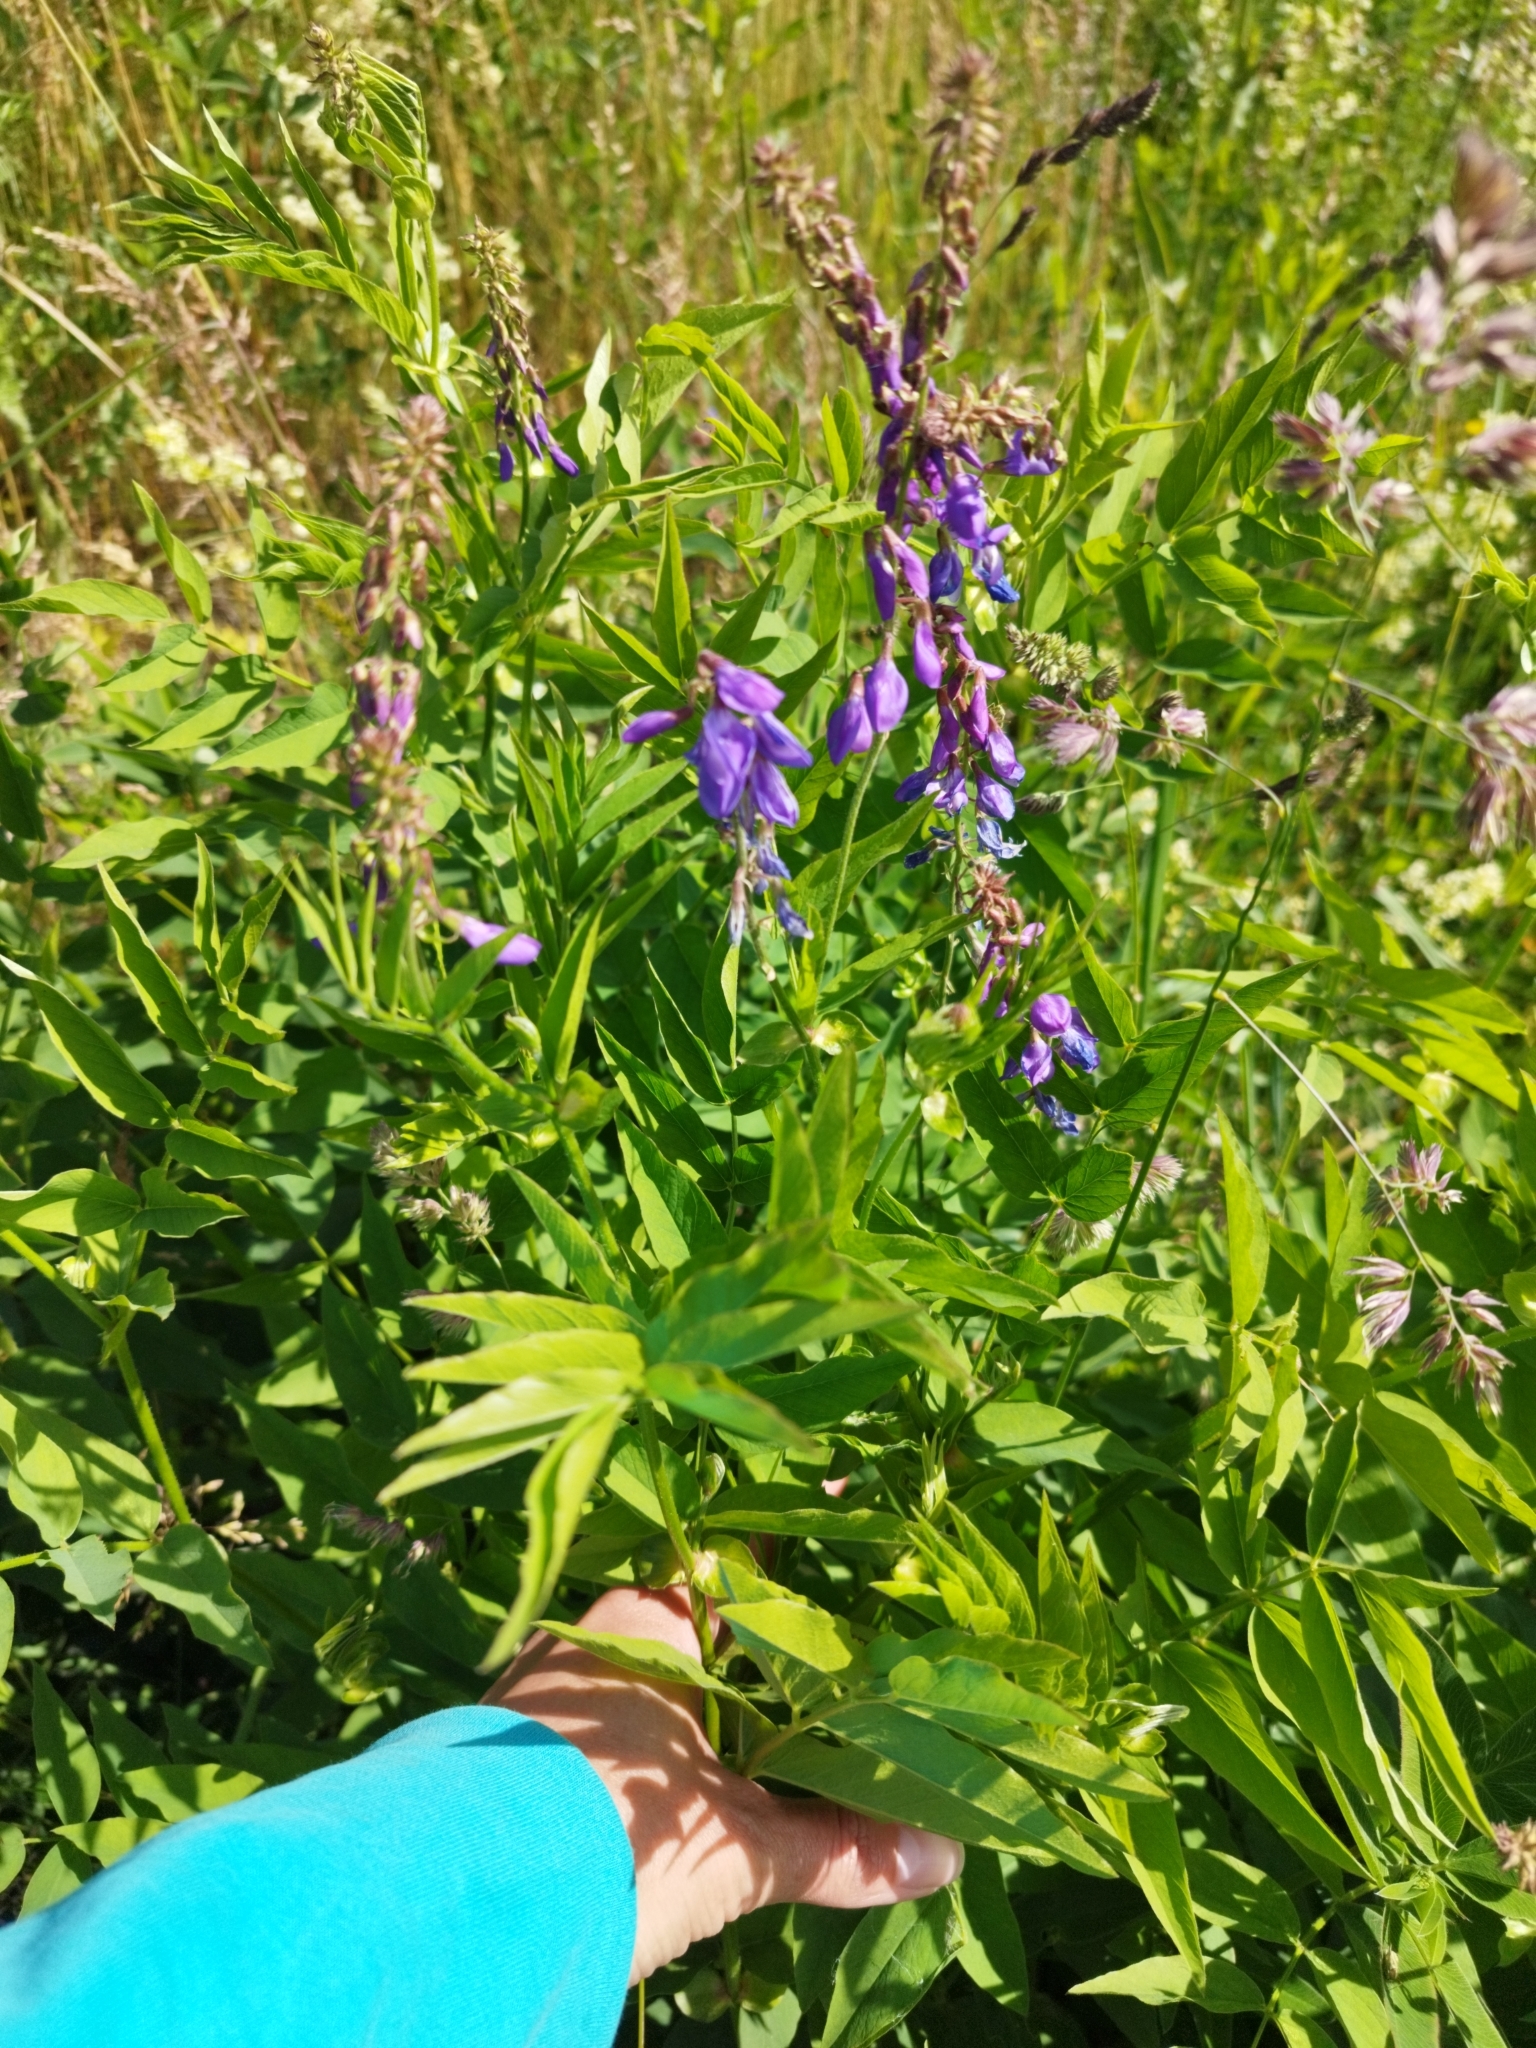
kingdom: Plantae
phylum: Tracheophyta
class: Magnoliopsida
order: Fabales
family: Fabaceae
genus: Galega
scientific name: Galega orientalis
